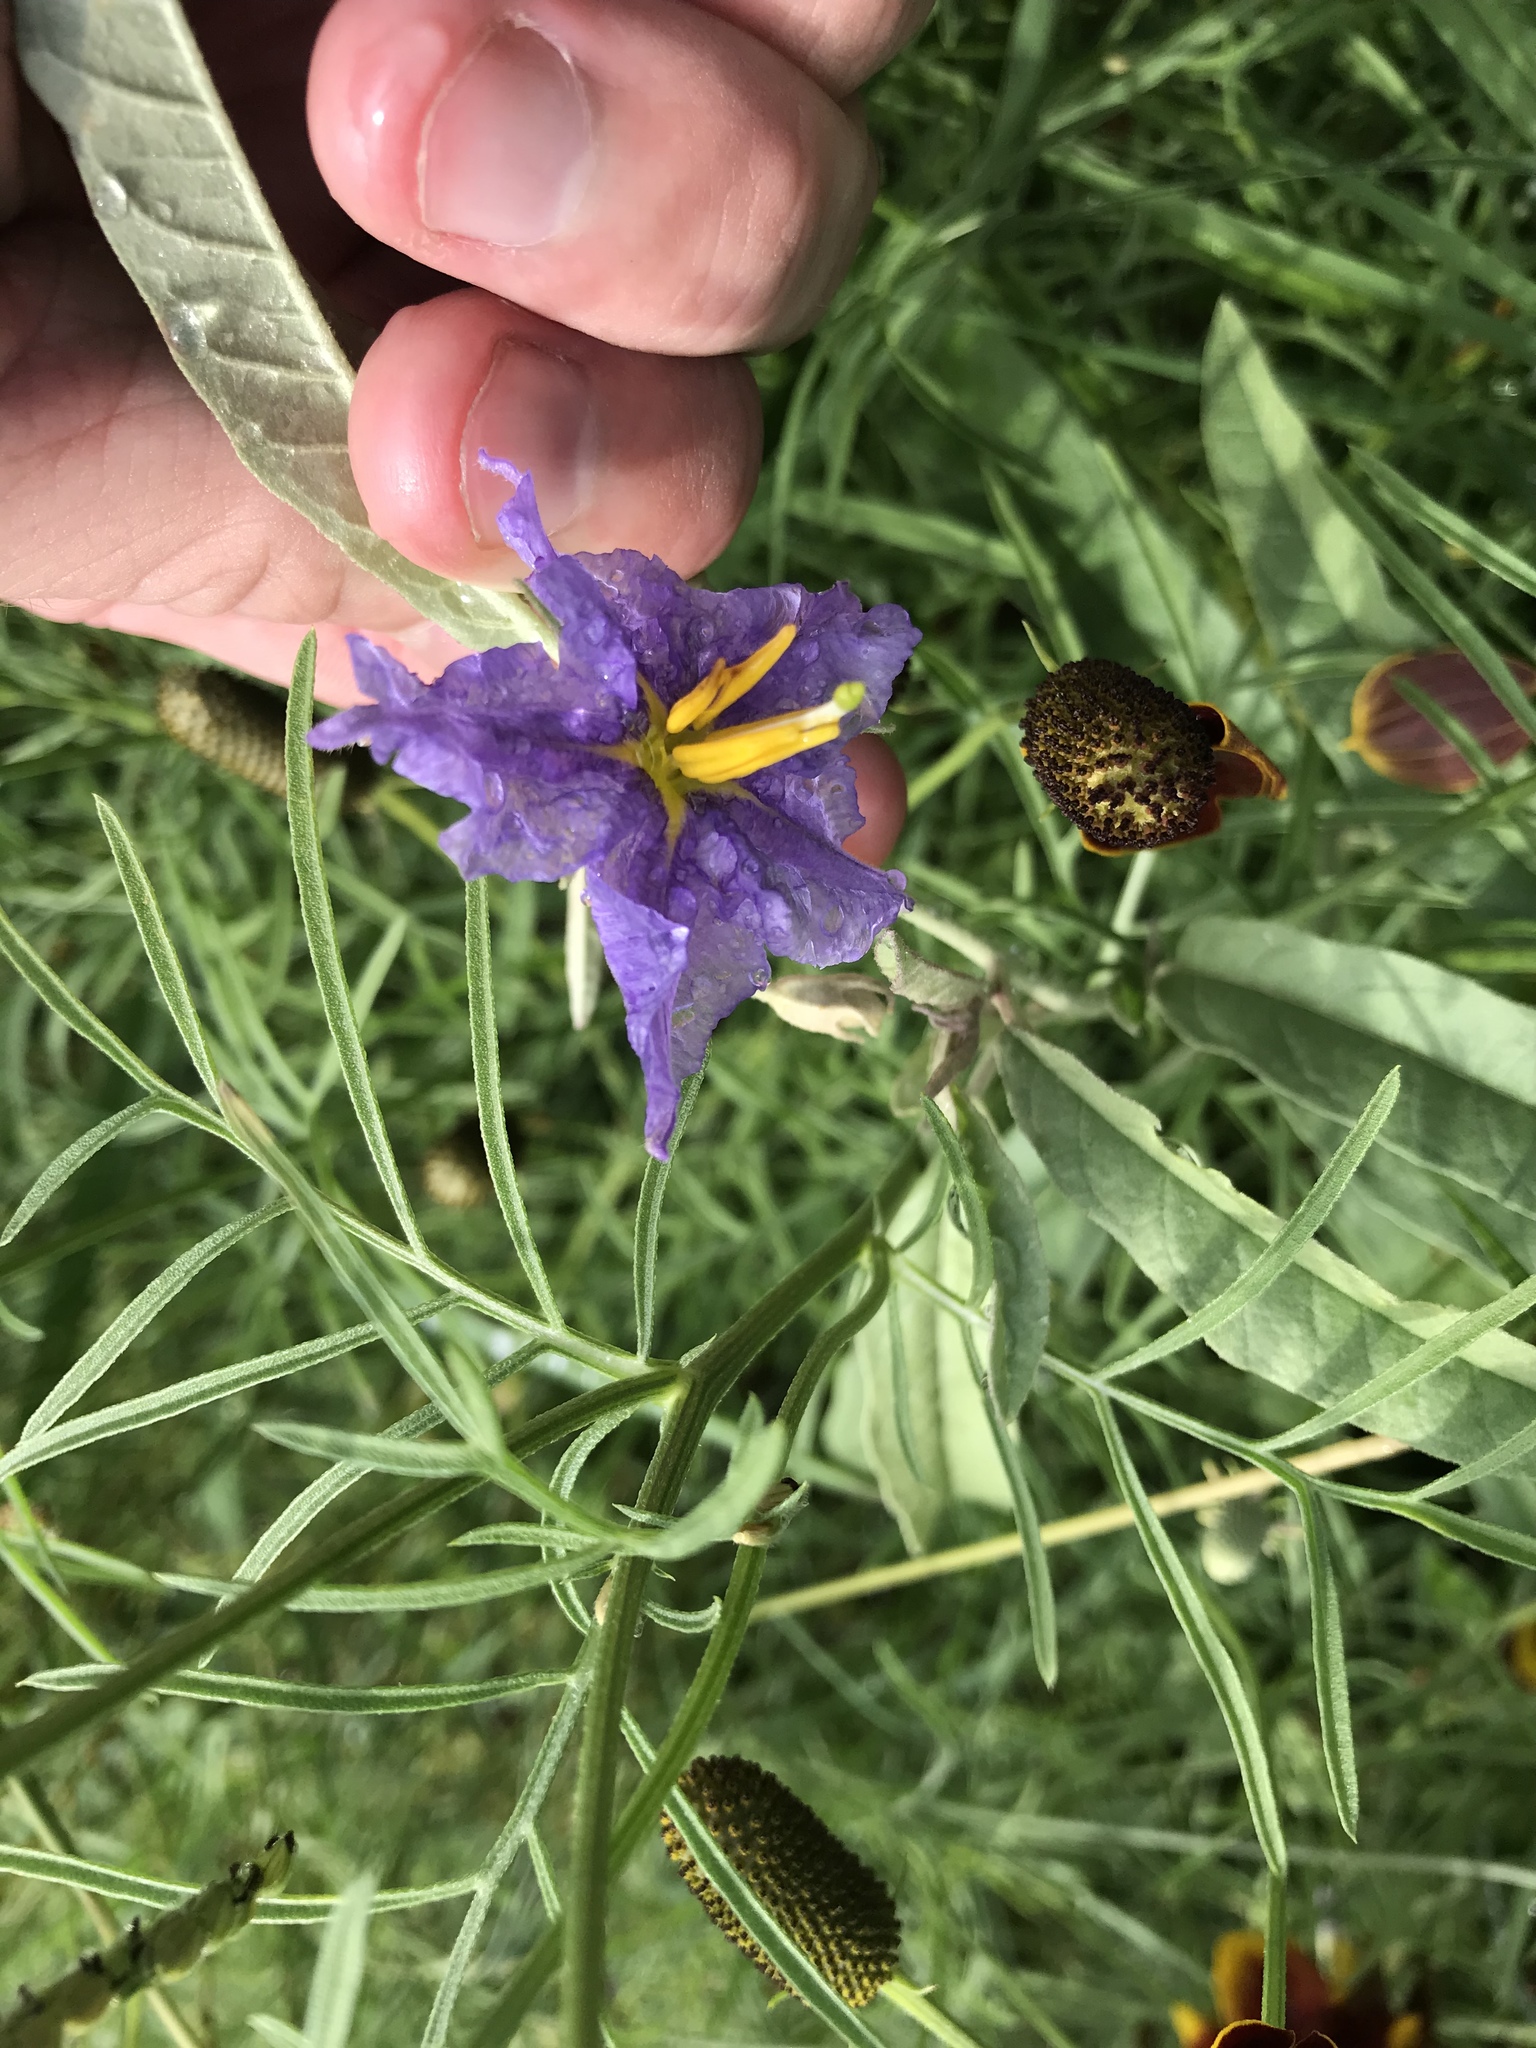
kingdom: Plantae
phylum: Tracheophyta
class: Magnoliopsida
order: Solanales
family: Solanaceae
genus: Solanum
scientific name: Solanum elaeagnifolium
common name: Silverleaf nightshade
